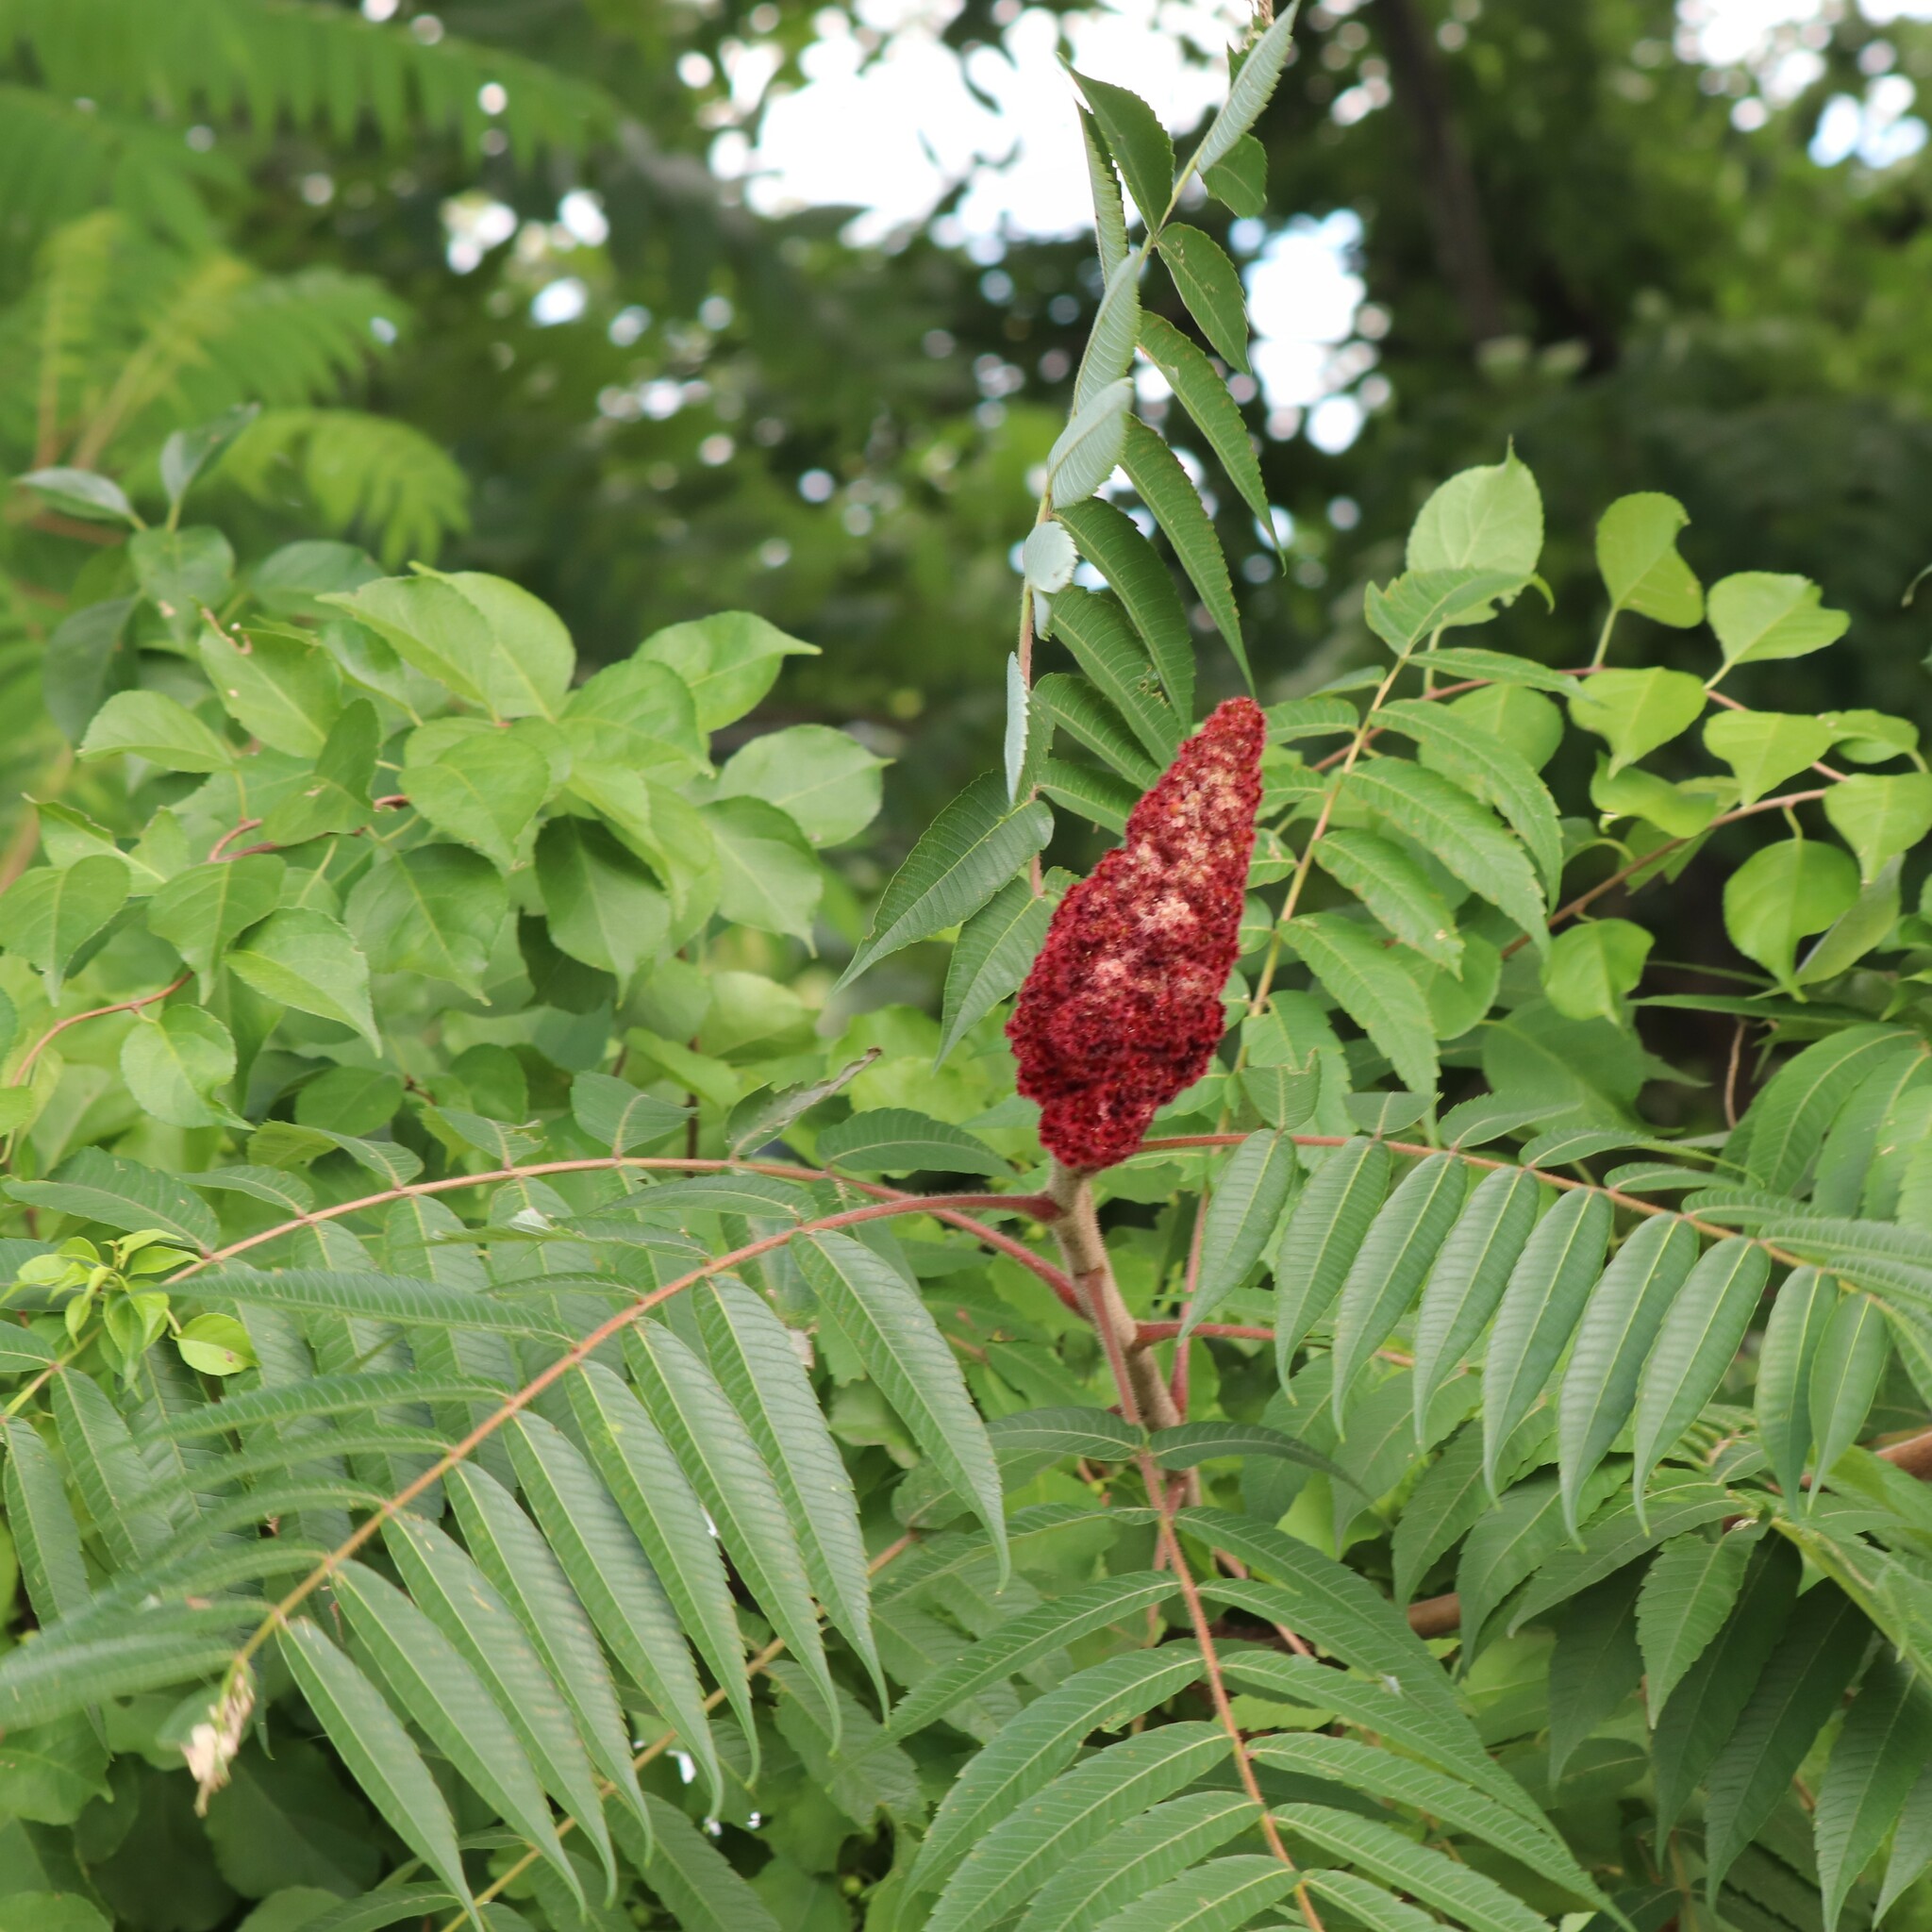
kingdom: Plantae
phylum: Tracheophyta
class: Magnoliopsida
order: Sapindales
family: Anacardiaceae
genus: Rhus
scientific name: Rhus typhina
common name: Staghorn sumac
